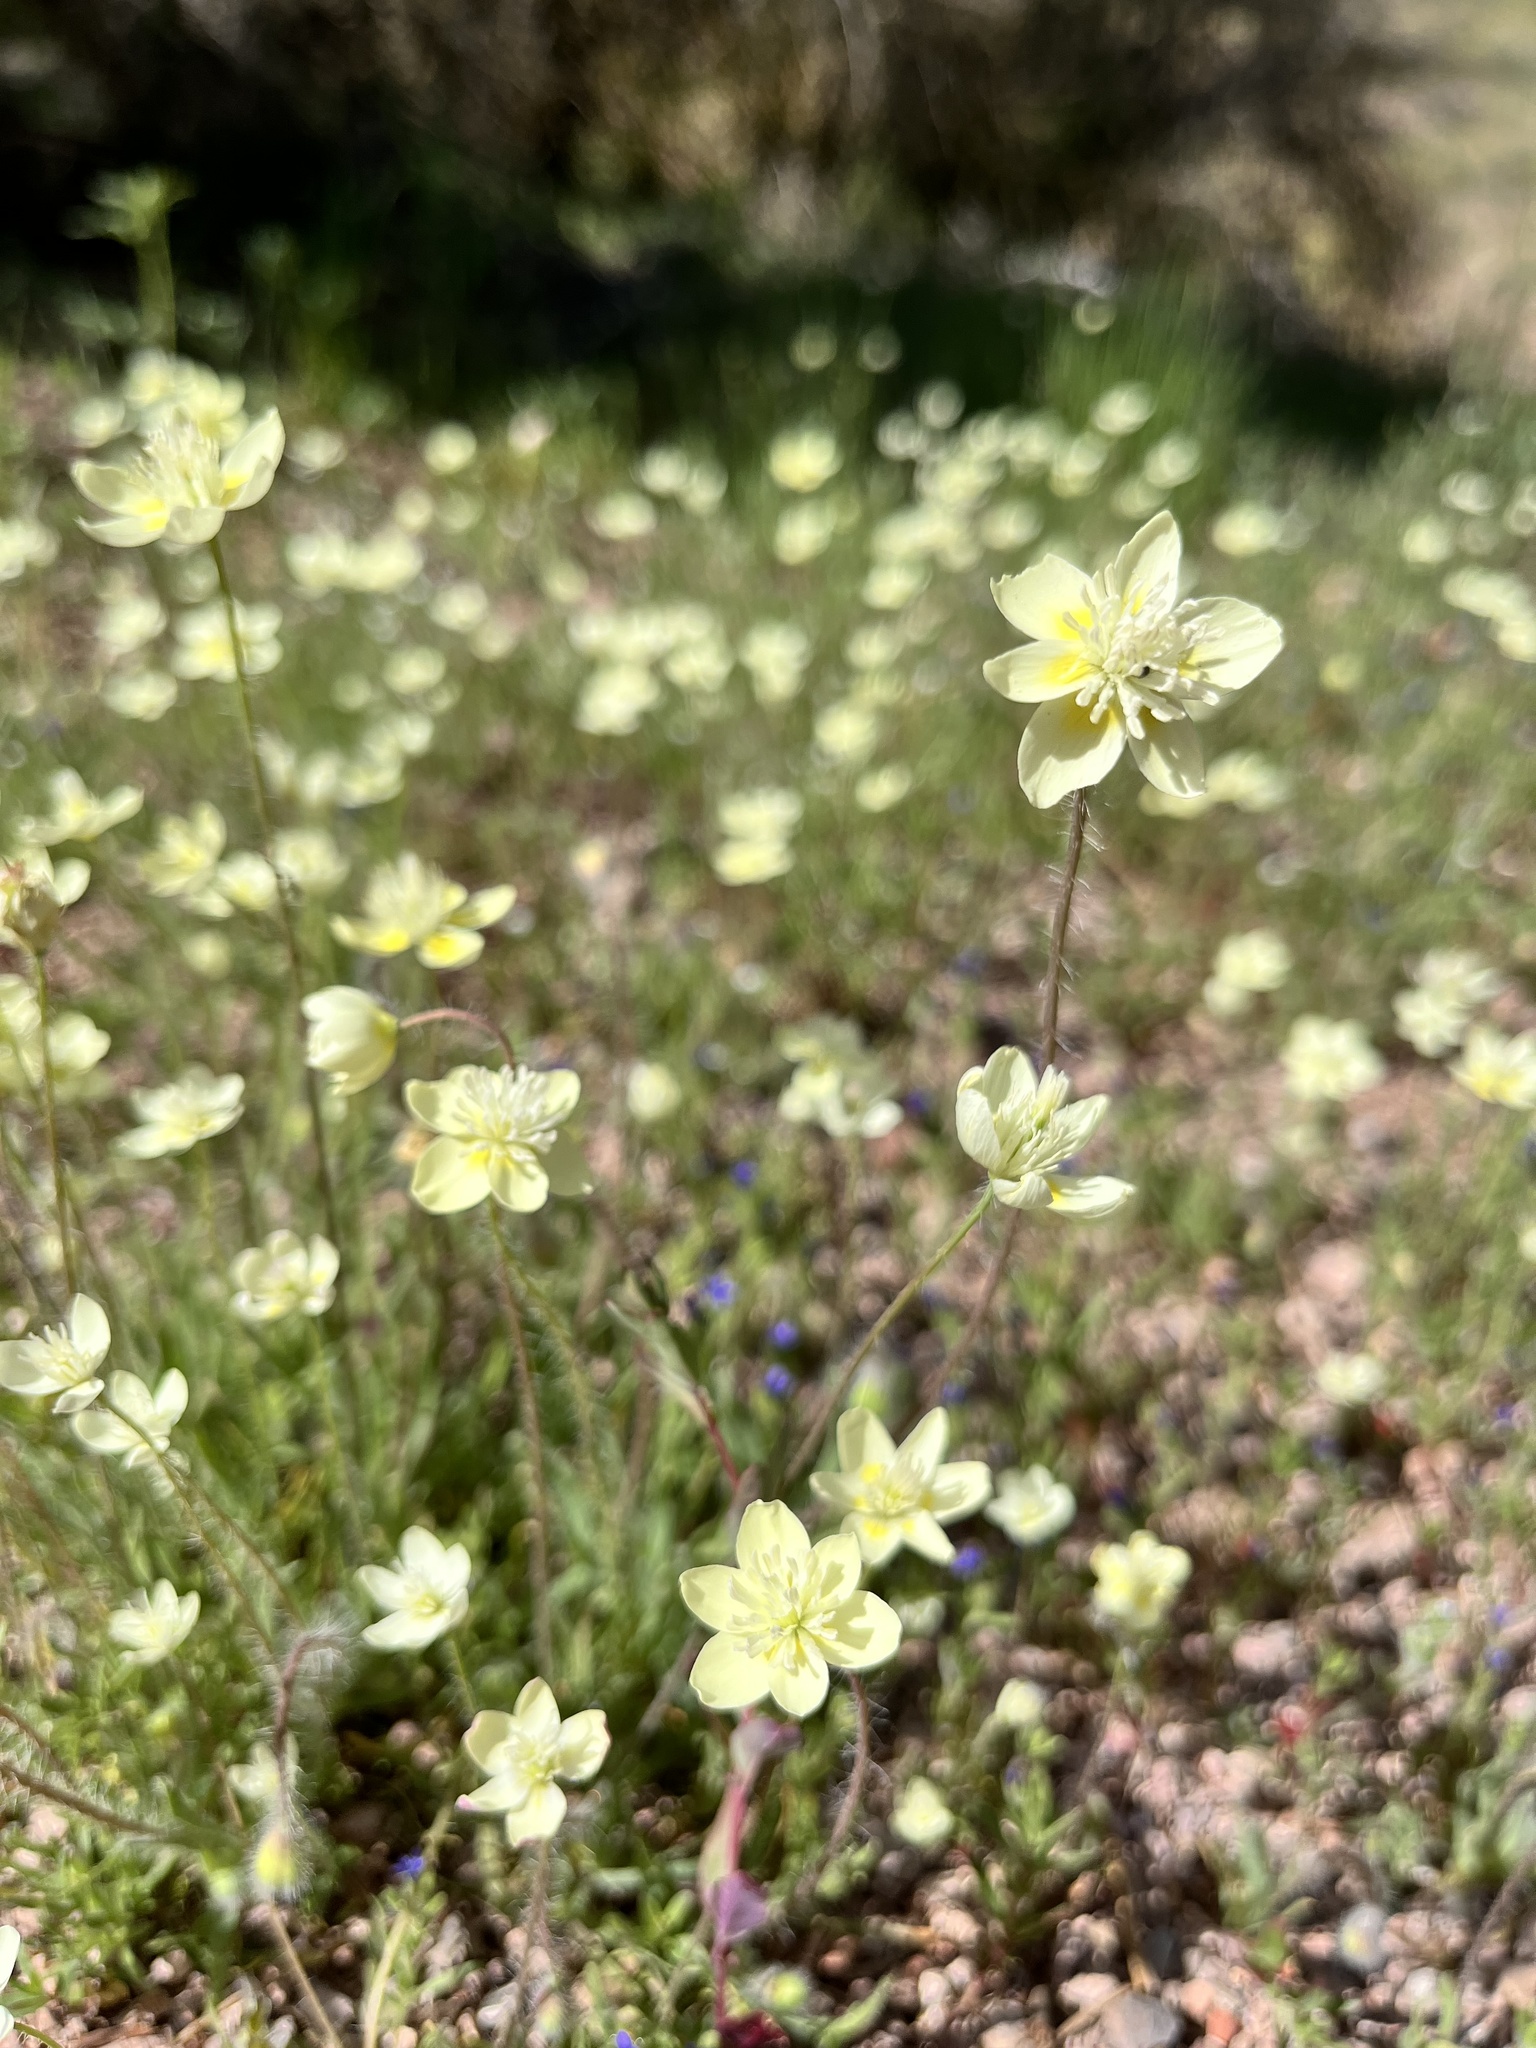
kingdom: Plantae
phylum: Tracheophyta
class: Magnoliopsida
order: Ranunculales
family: Papaveraceae
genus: Platystemon
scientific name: Platystemon californicus
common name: Cream-cups
